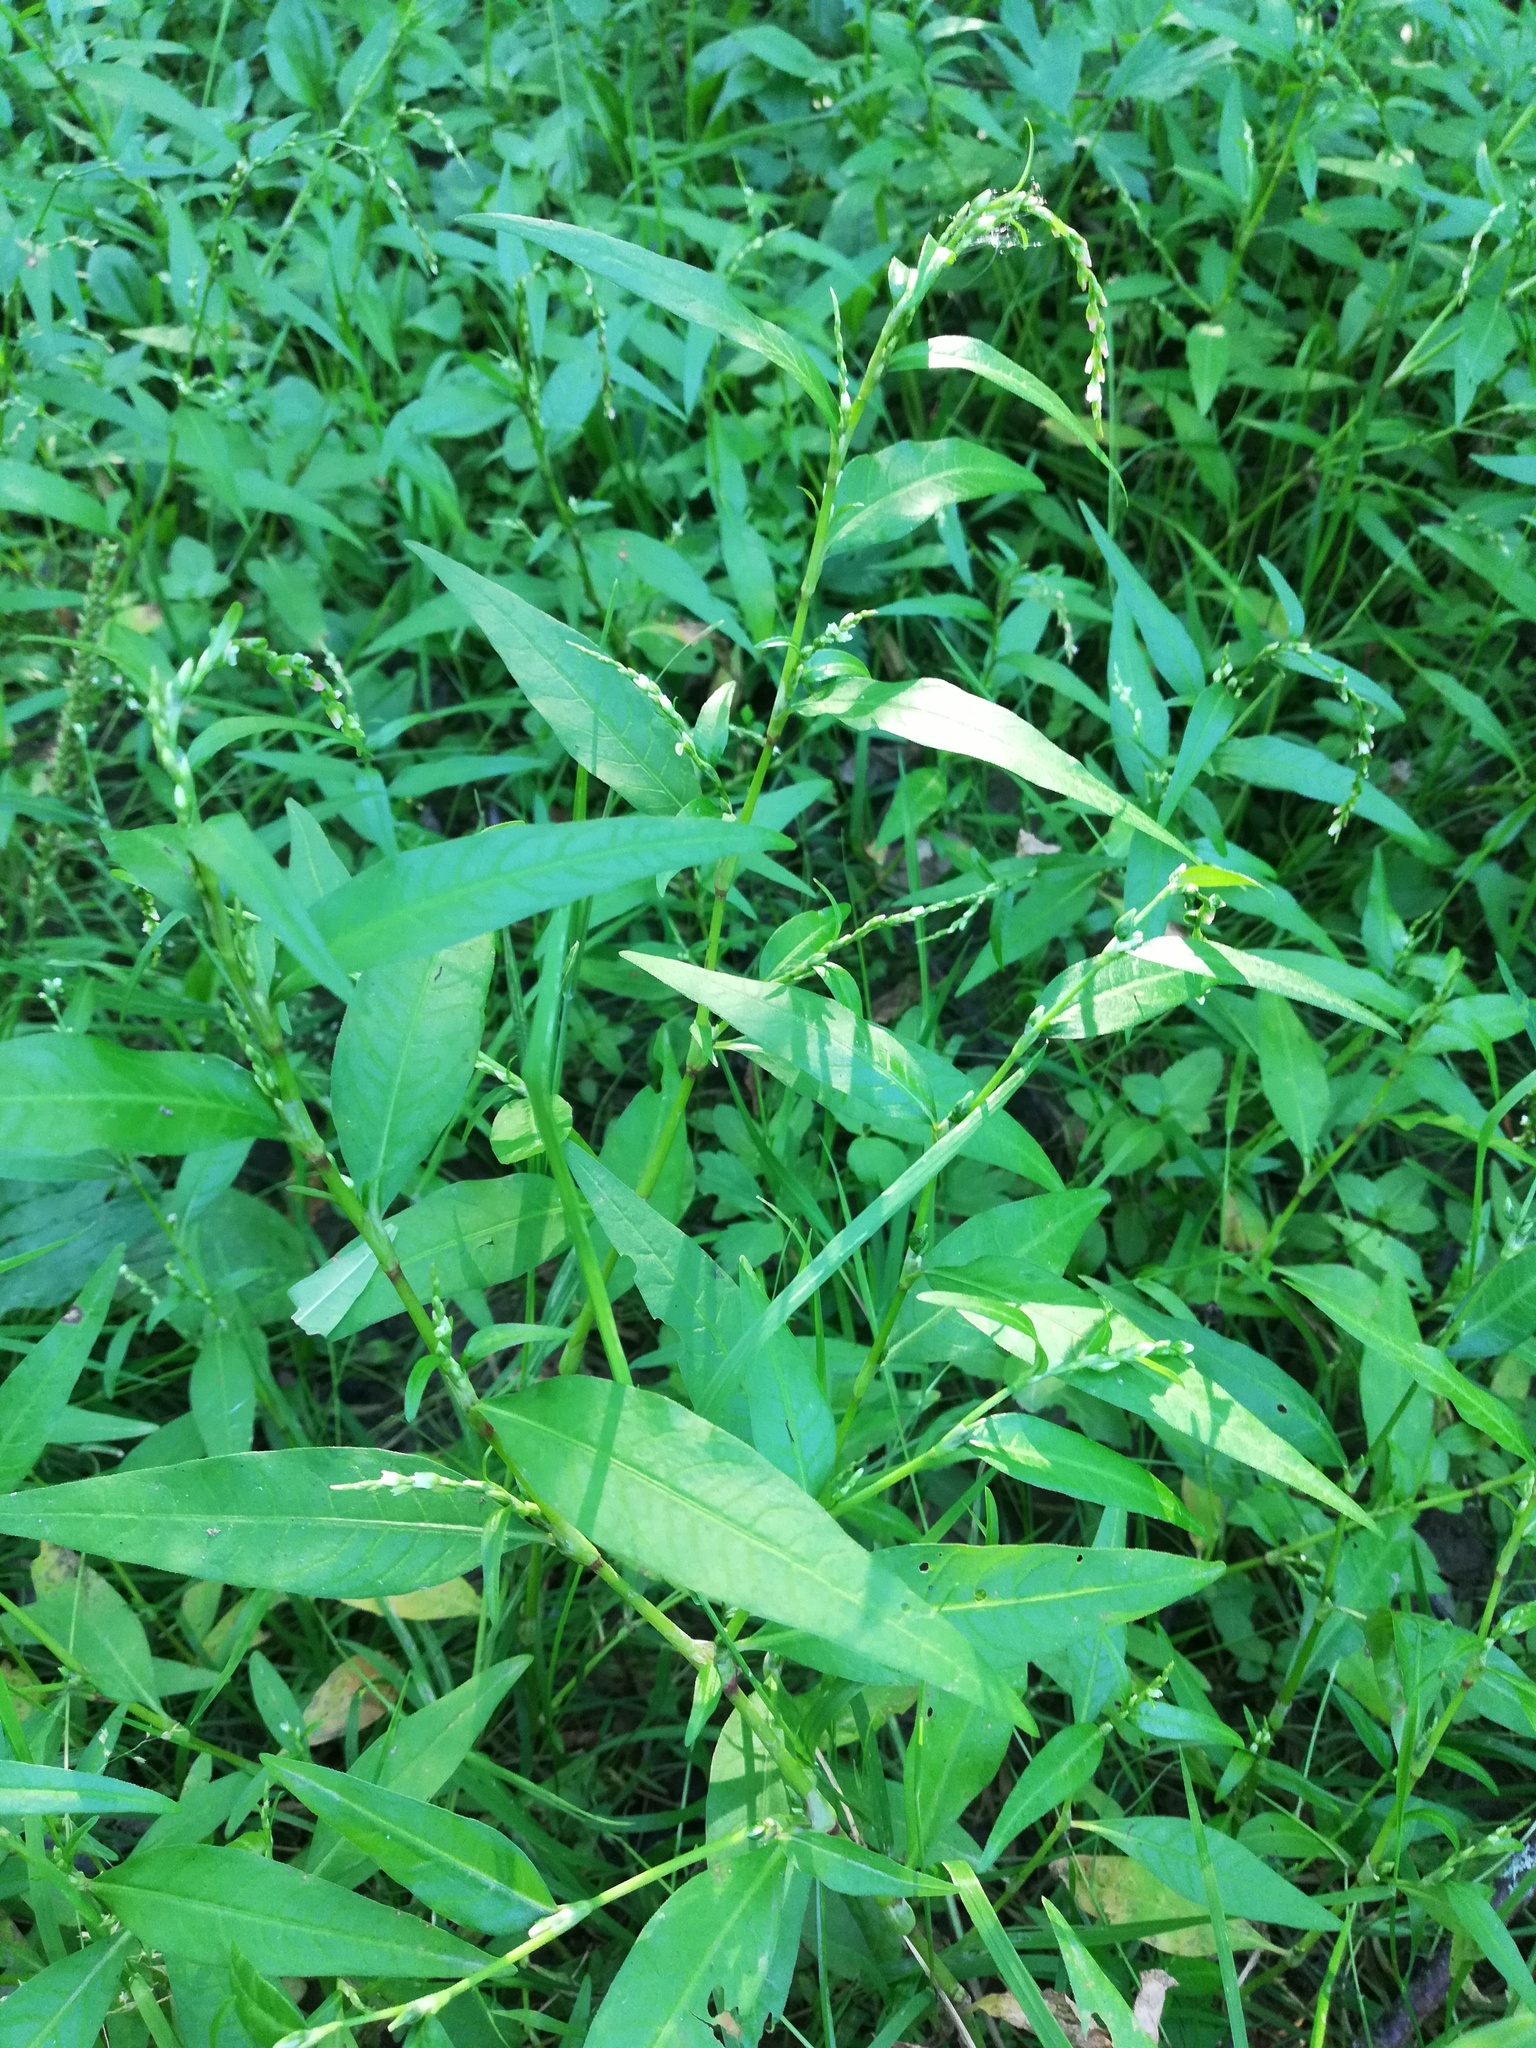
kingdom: Plantae
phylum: Tracheophyta
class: Magnoliopsida
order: Caryophyllales
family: Polygonaceae
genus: Persicaria
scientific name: Persicaria hydropiper
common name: Water-pepper
